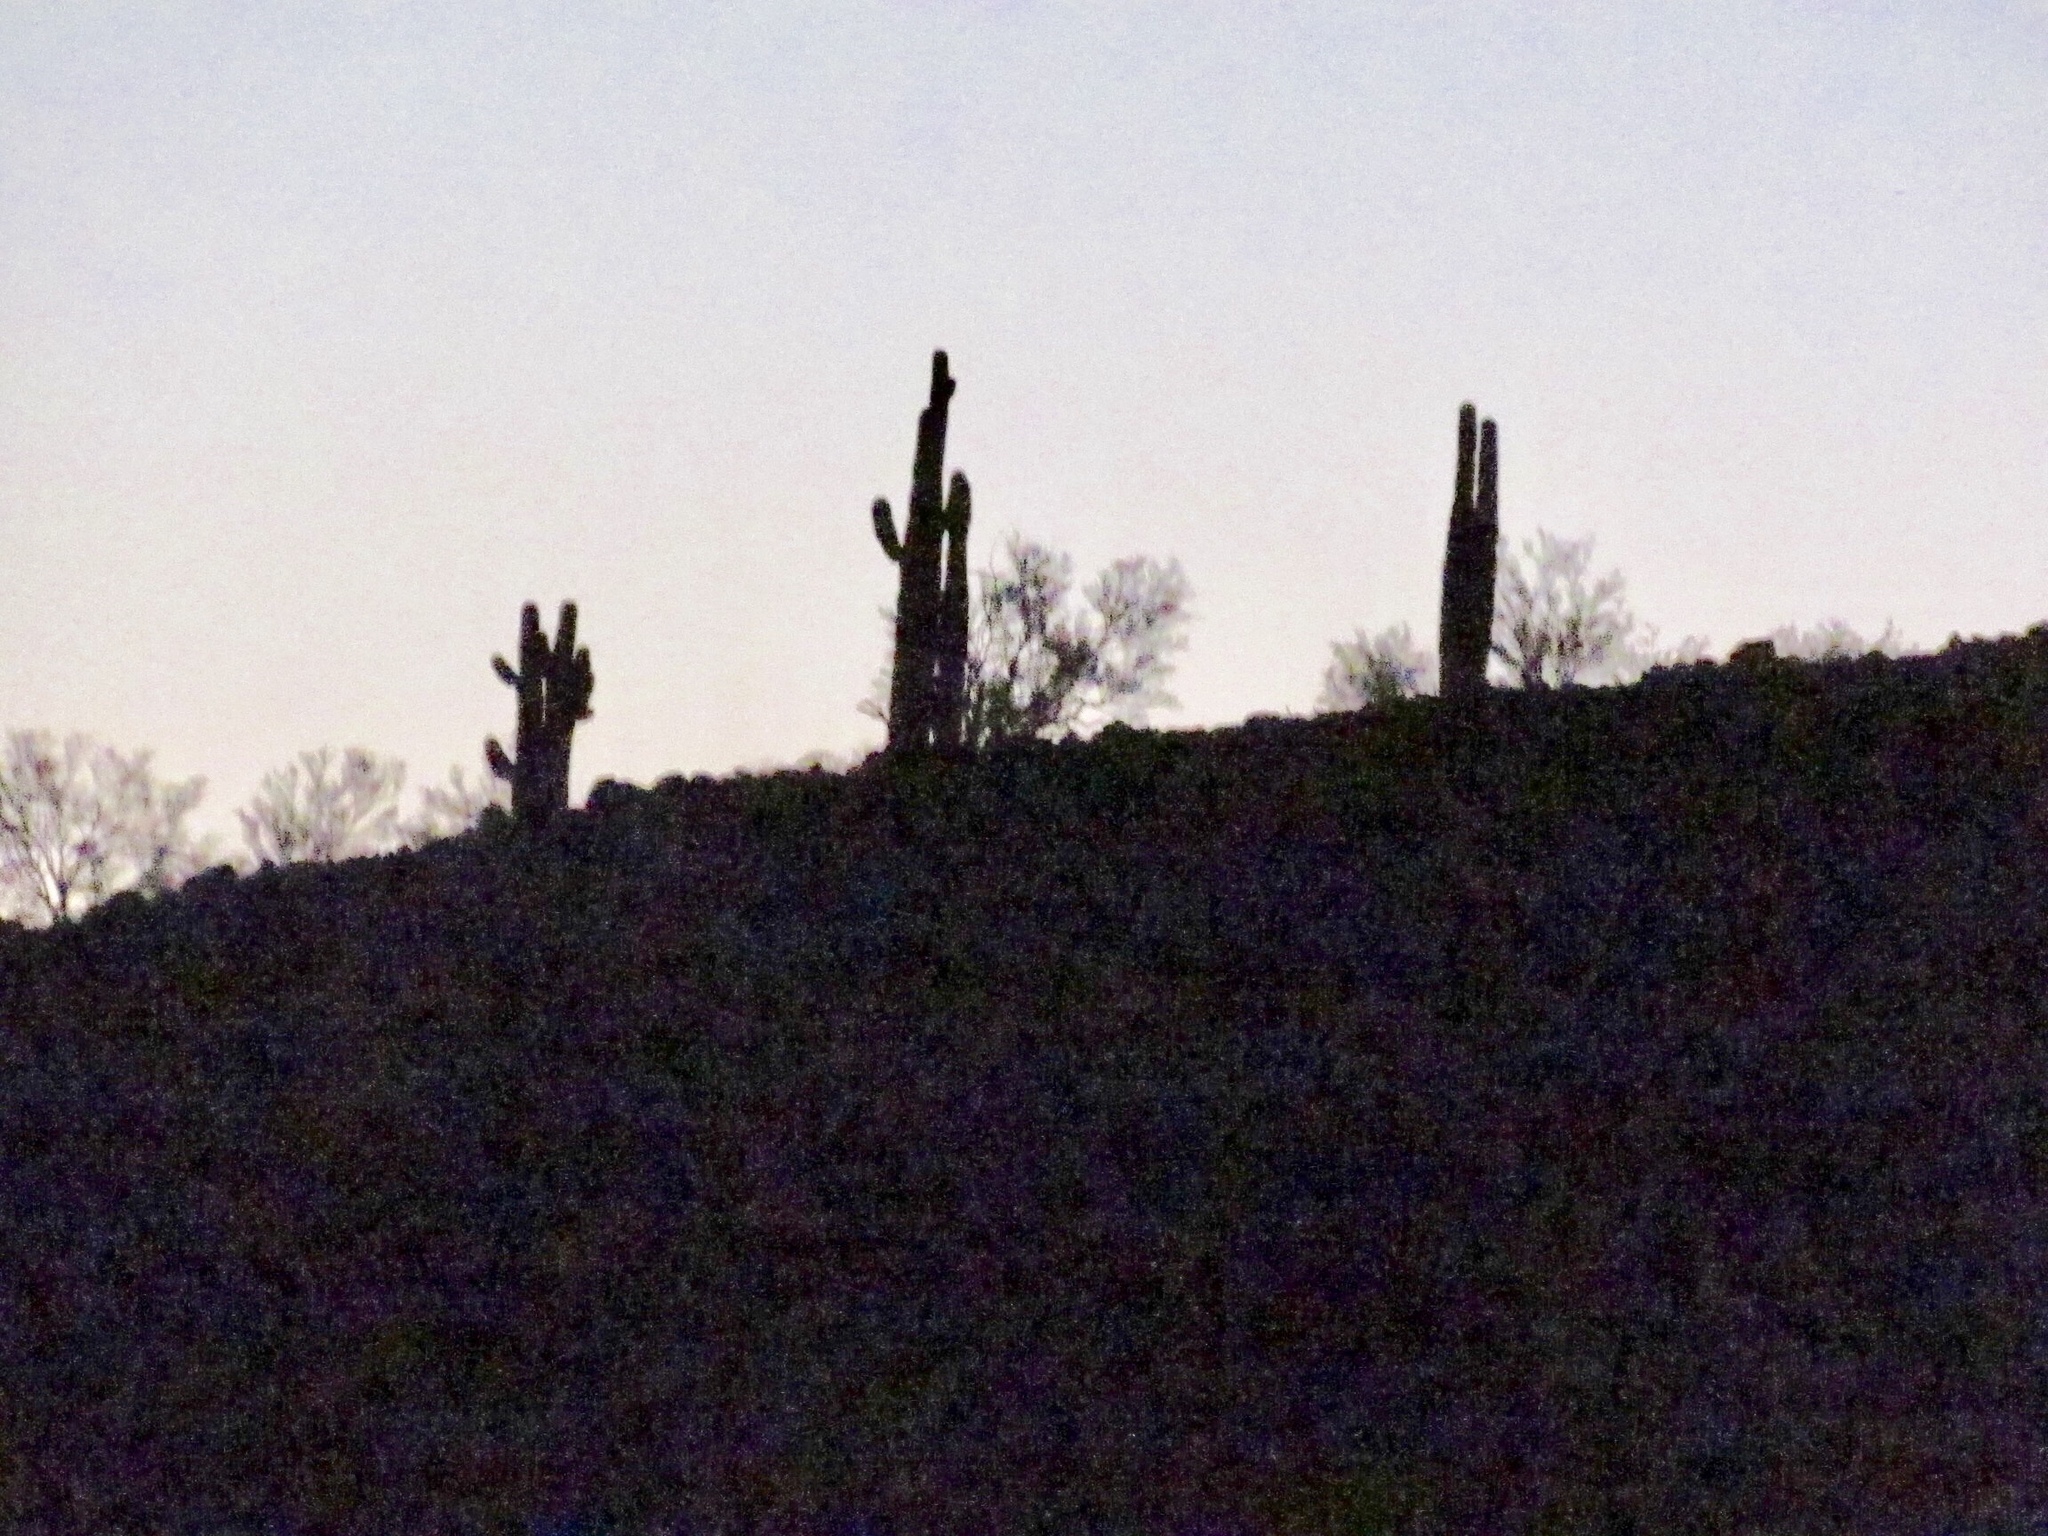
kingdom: Plantae
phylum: Tracheophyta
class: Magnoliopsida
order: Caryophyllales
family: Cactaceae
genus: Carnegiea
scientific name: Carnegiea gigantea
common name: Saguaro
